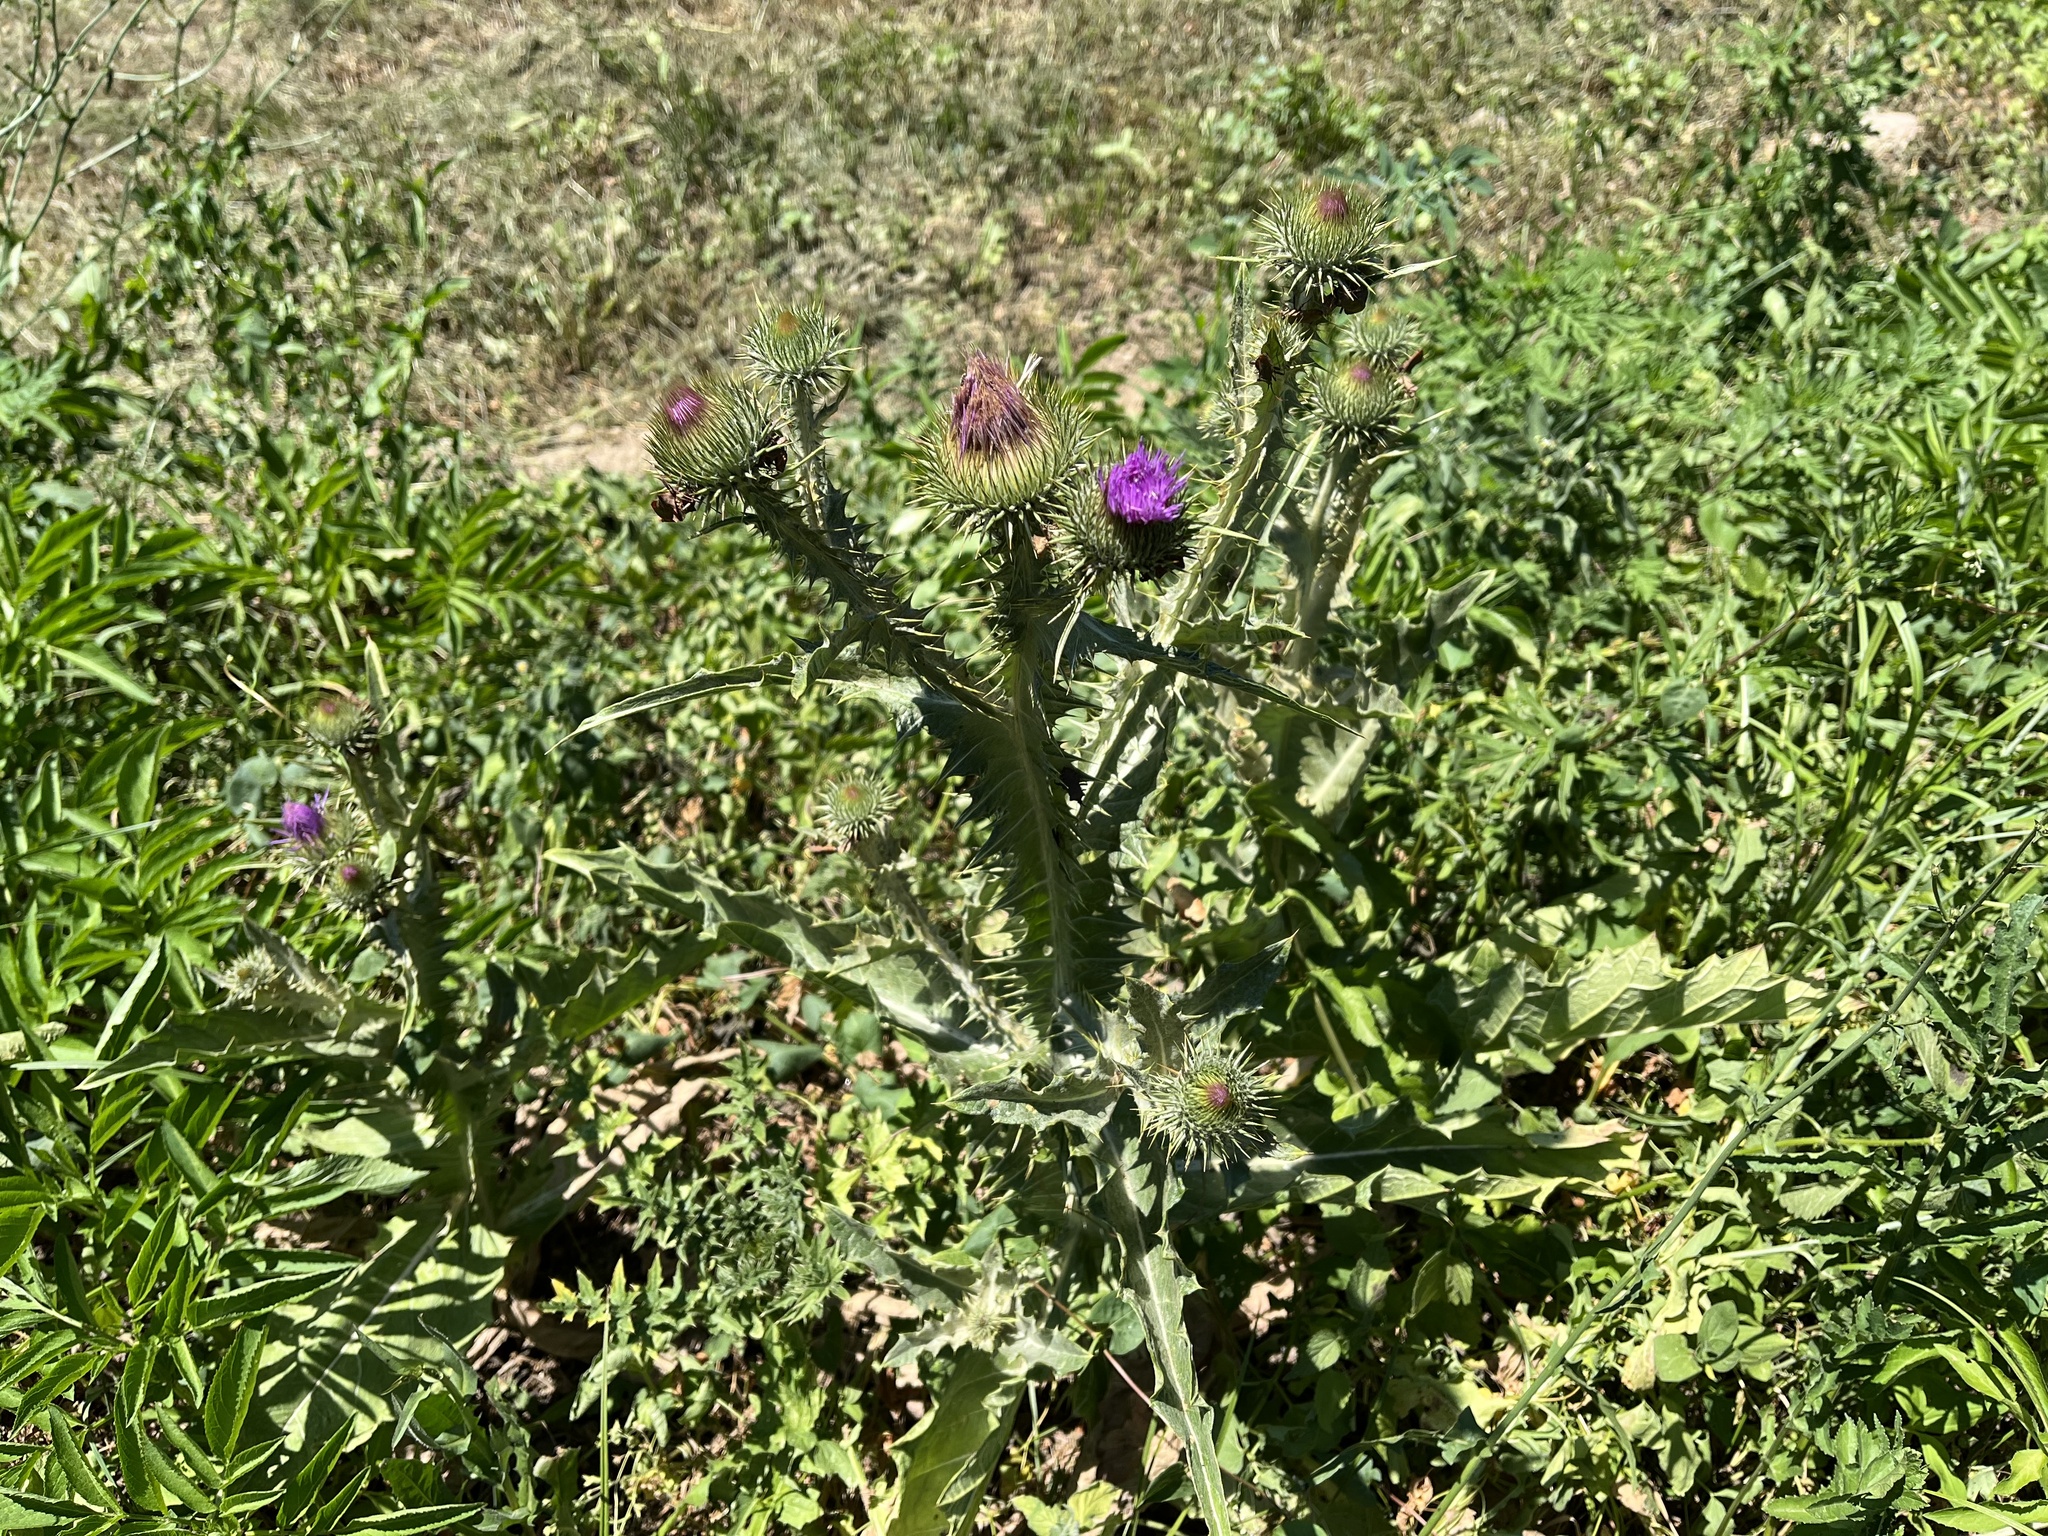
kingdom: Plantae
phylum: Tracheophyta
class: Magnoliopsida
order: Asterales
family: Asteraceae
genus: Onopordum
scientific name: Onopordum acanthium
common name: Scotch thistle
